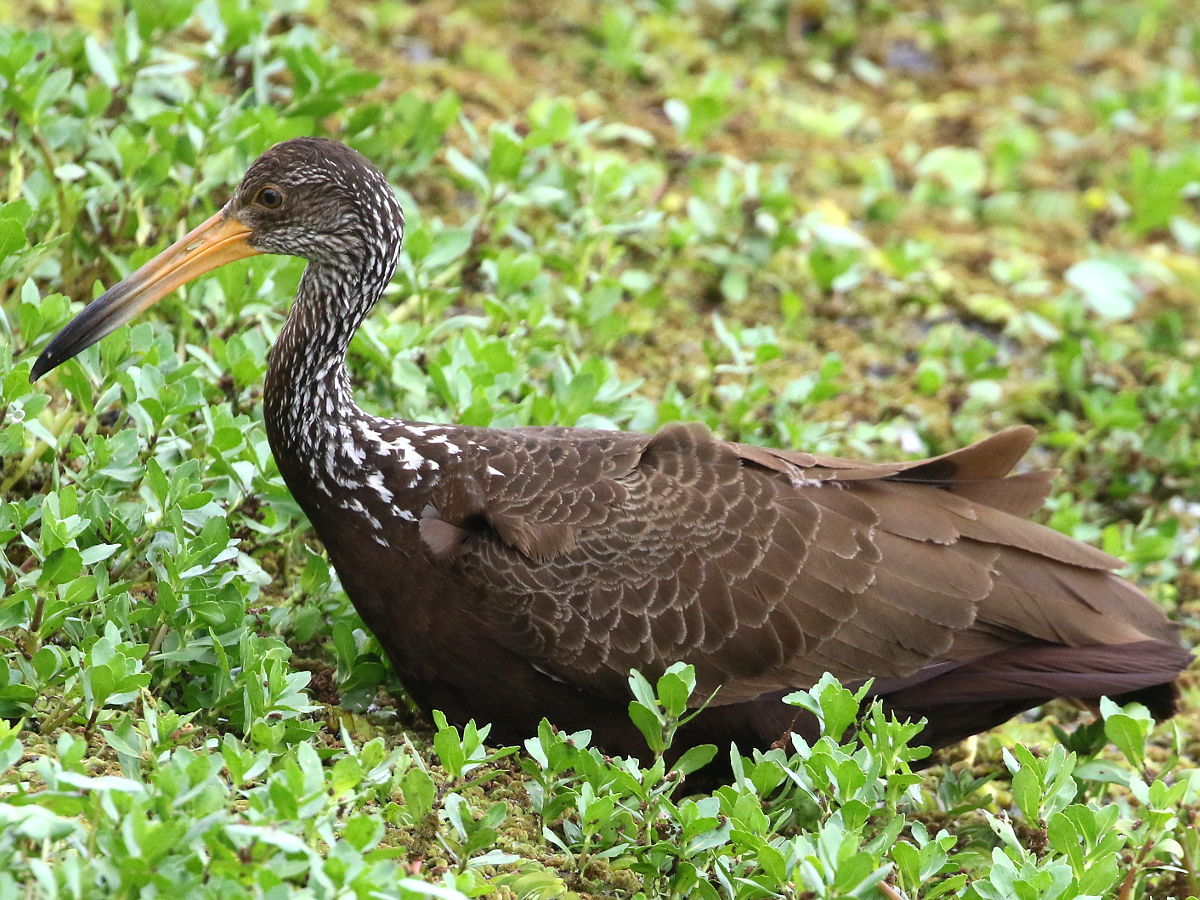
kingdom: Animalia
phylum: Chordata
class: Aves
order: Gruiformes
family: Aramidae
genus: Aramus
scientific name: Aramus guarauna
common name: Limpkin
